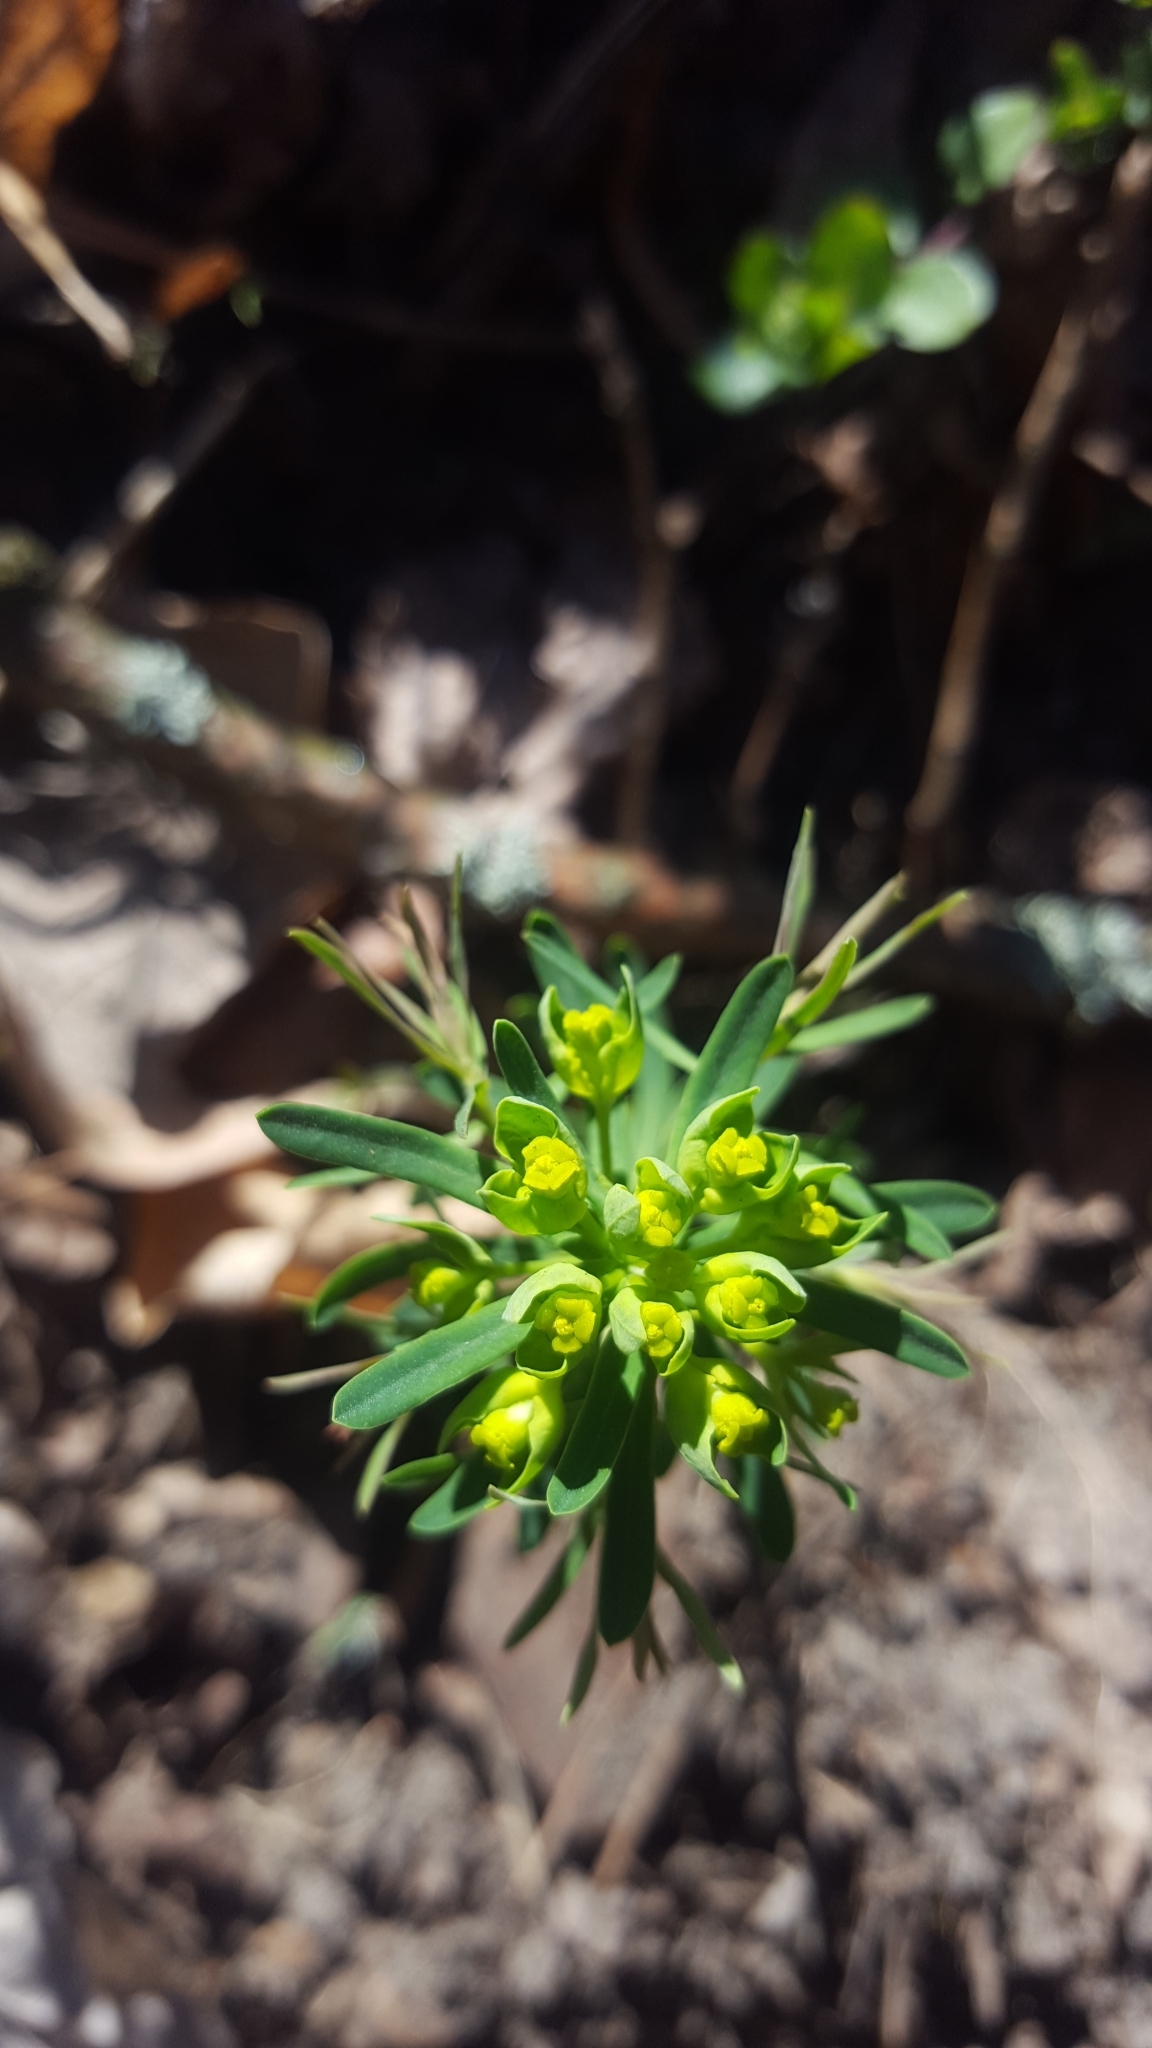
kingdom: Plantae
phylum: Tracheophyta
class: Magnoliopsida
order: Malpighiales
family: Euphorbiaceae
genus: Euphorbia
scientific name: Euphorbia cyparissias
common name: Cypress spurge
